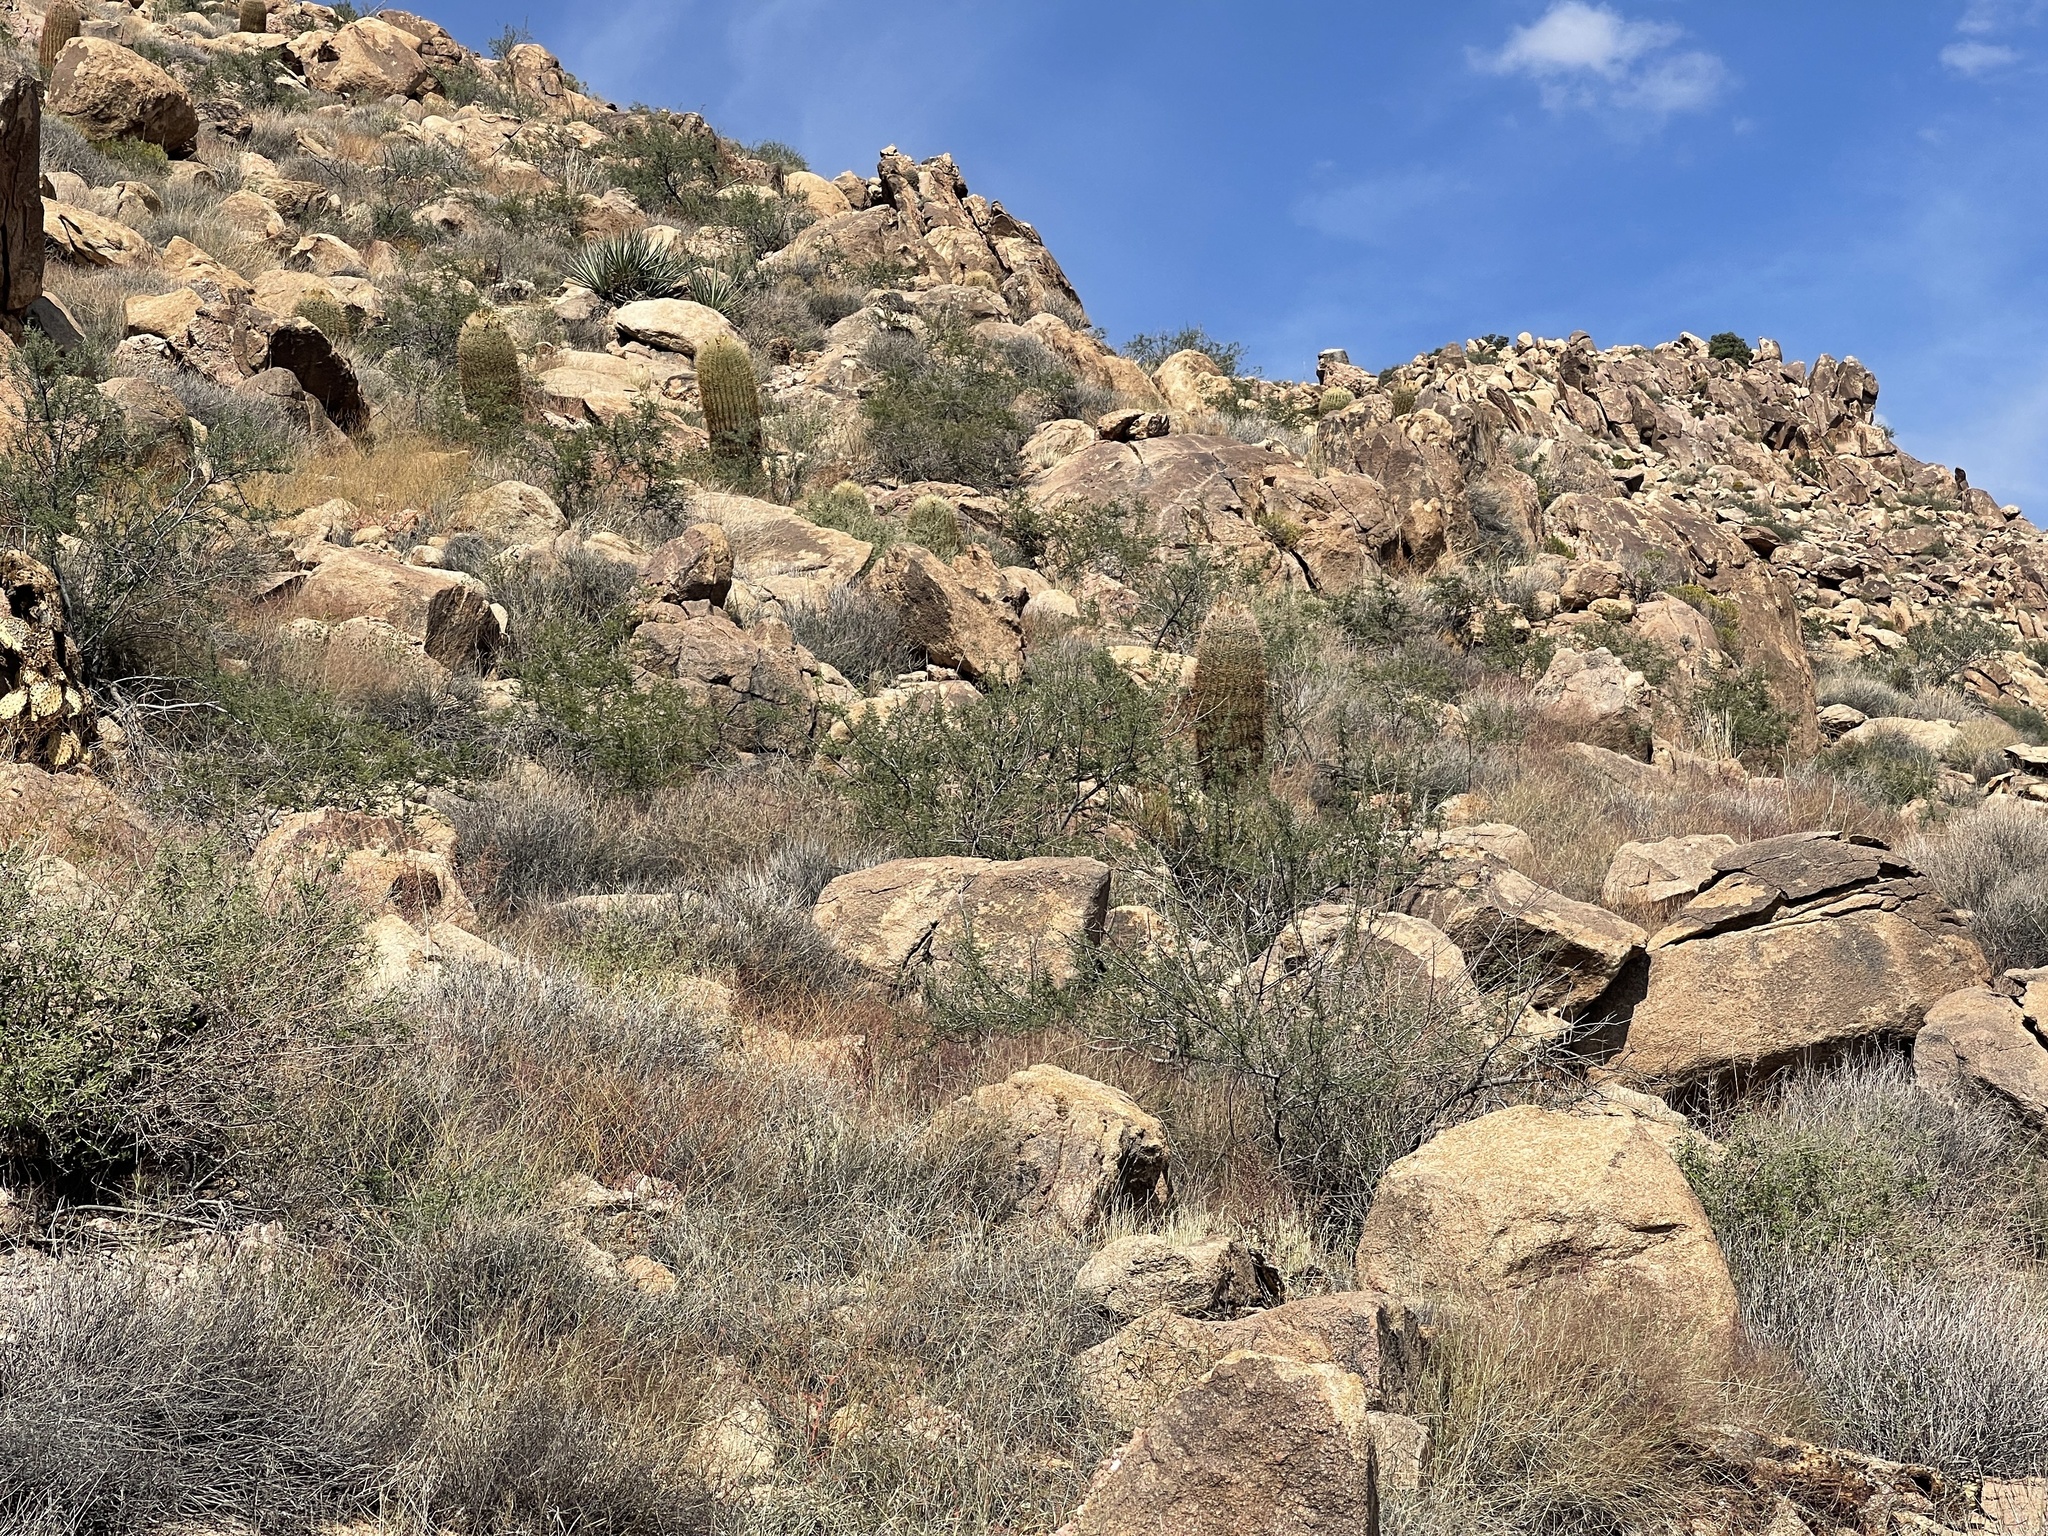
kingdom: Plantae
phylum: Tracheophyta
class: Magnoliopsida
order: Caryophyllales
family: Cactaceae
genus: Ferocactus
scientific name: Ferocactus cylindraceus
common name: California barrel cactus
